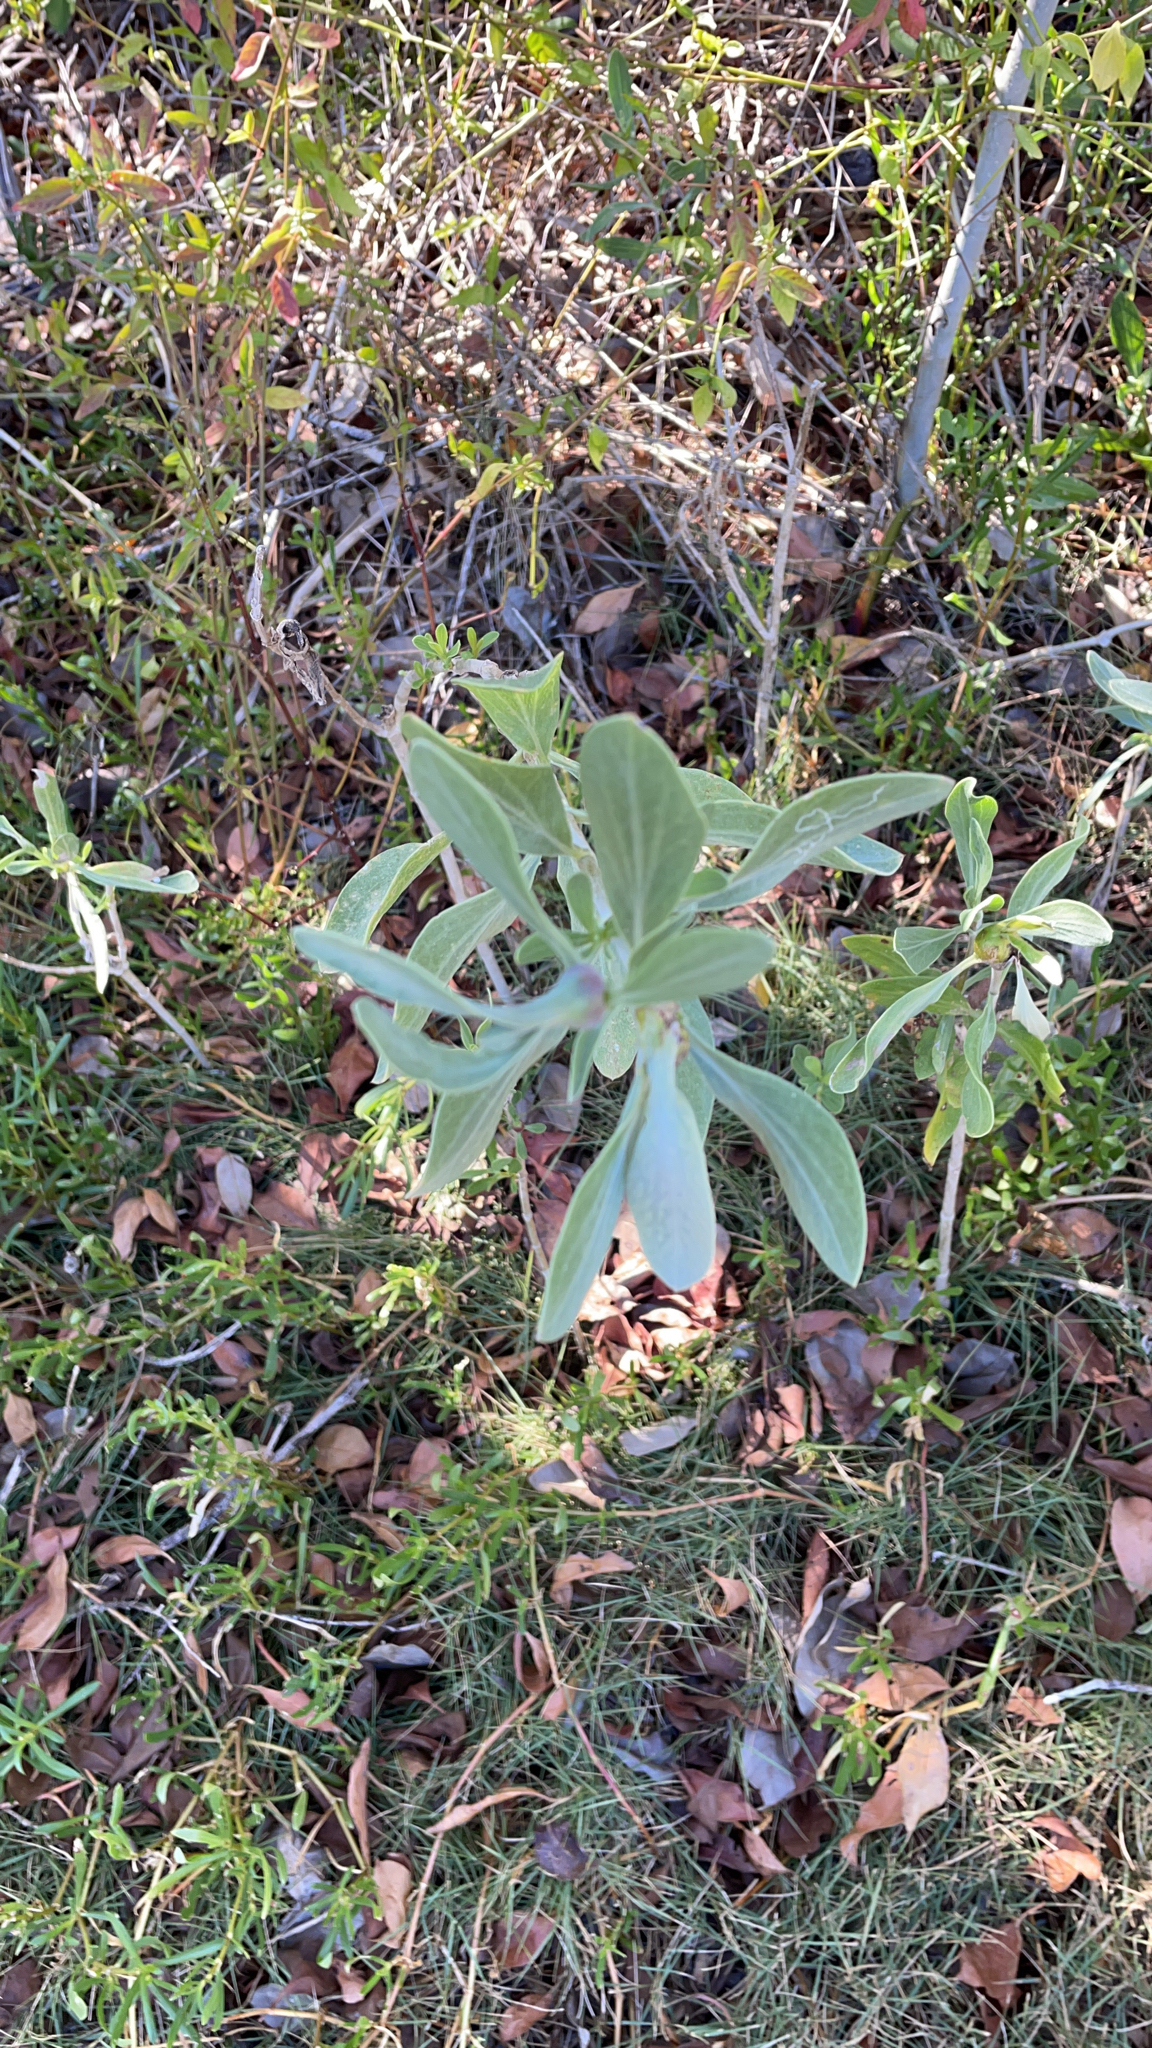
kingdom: Plantae
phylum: Tracheophyta
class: Magnoliopsida
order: Asterales
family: Asteraceae
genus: Borrichia
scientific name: Borrichia frutescens
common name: Sea oxeye
